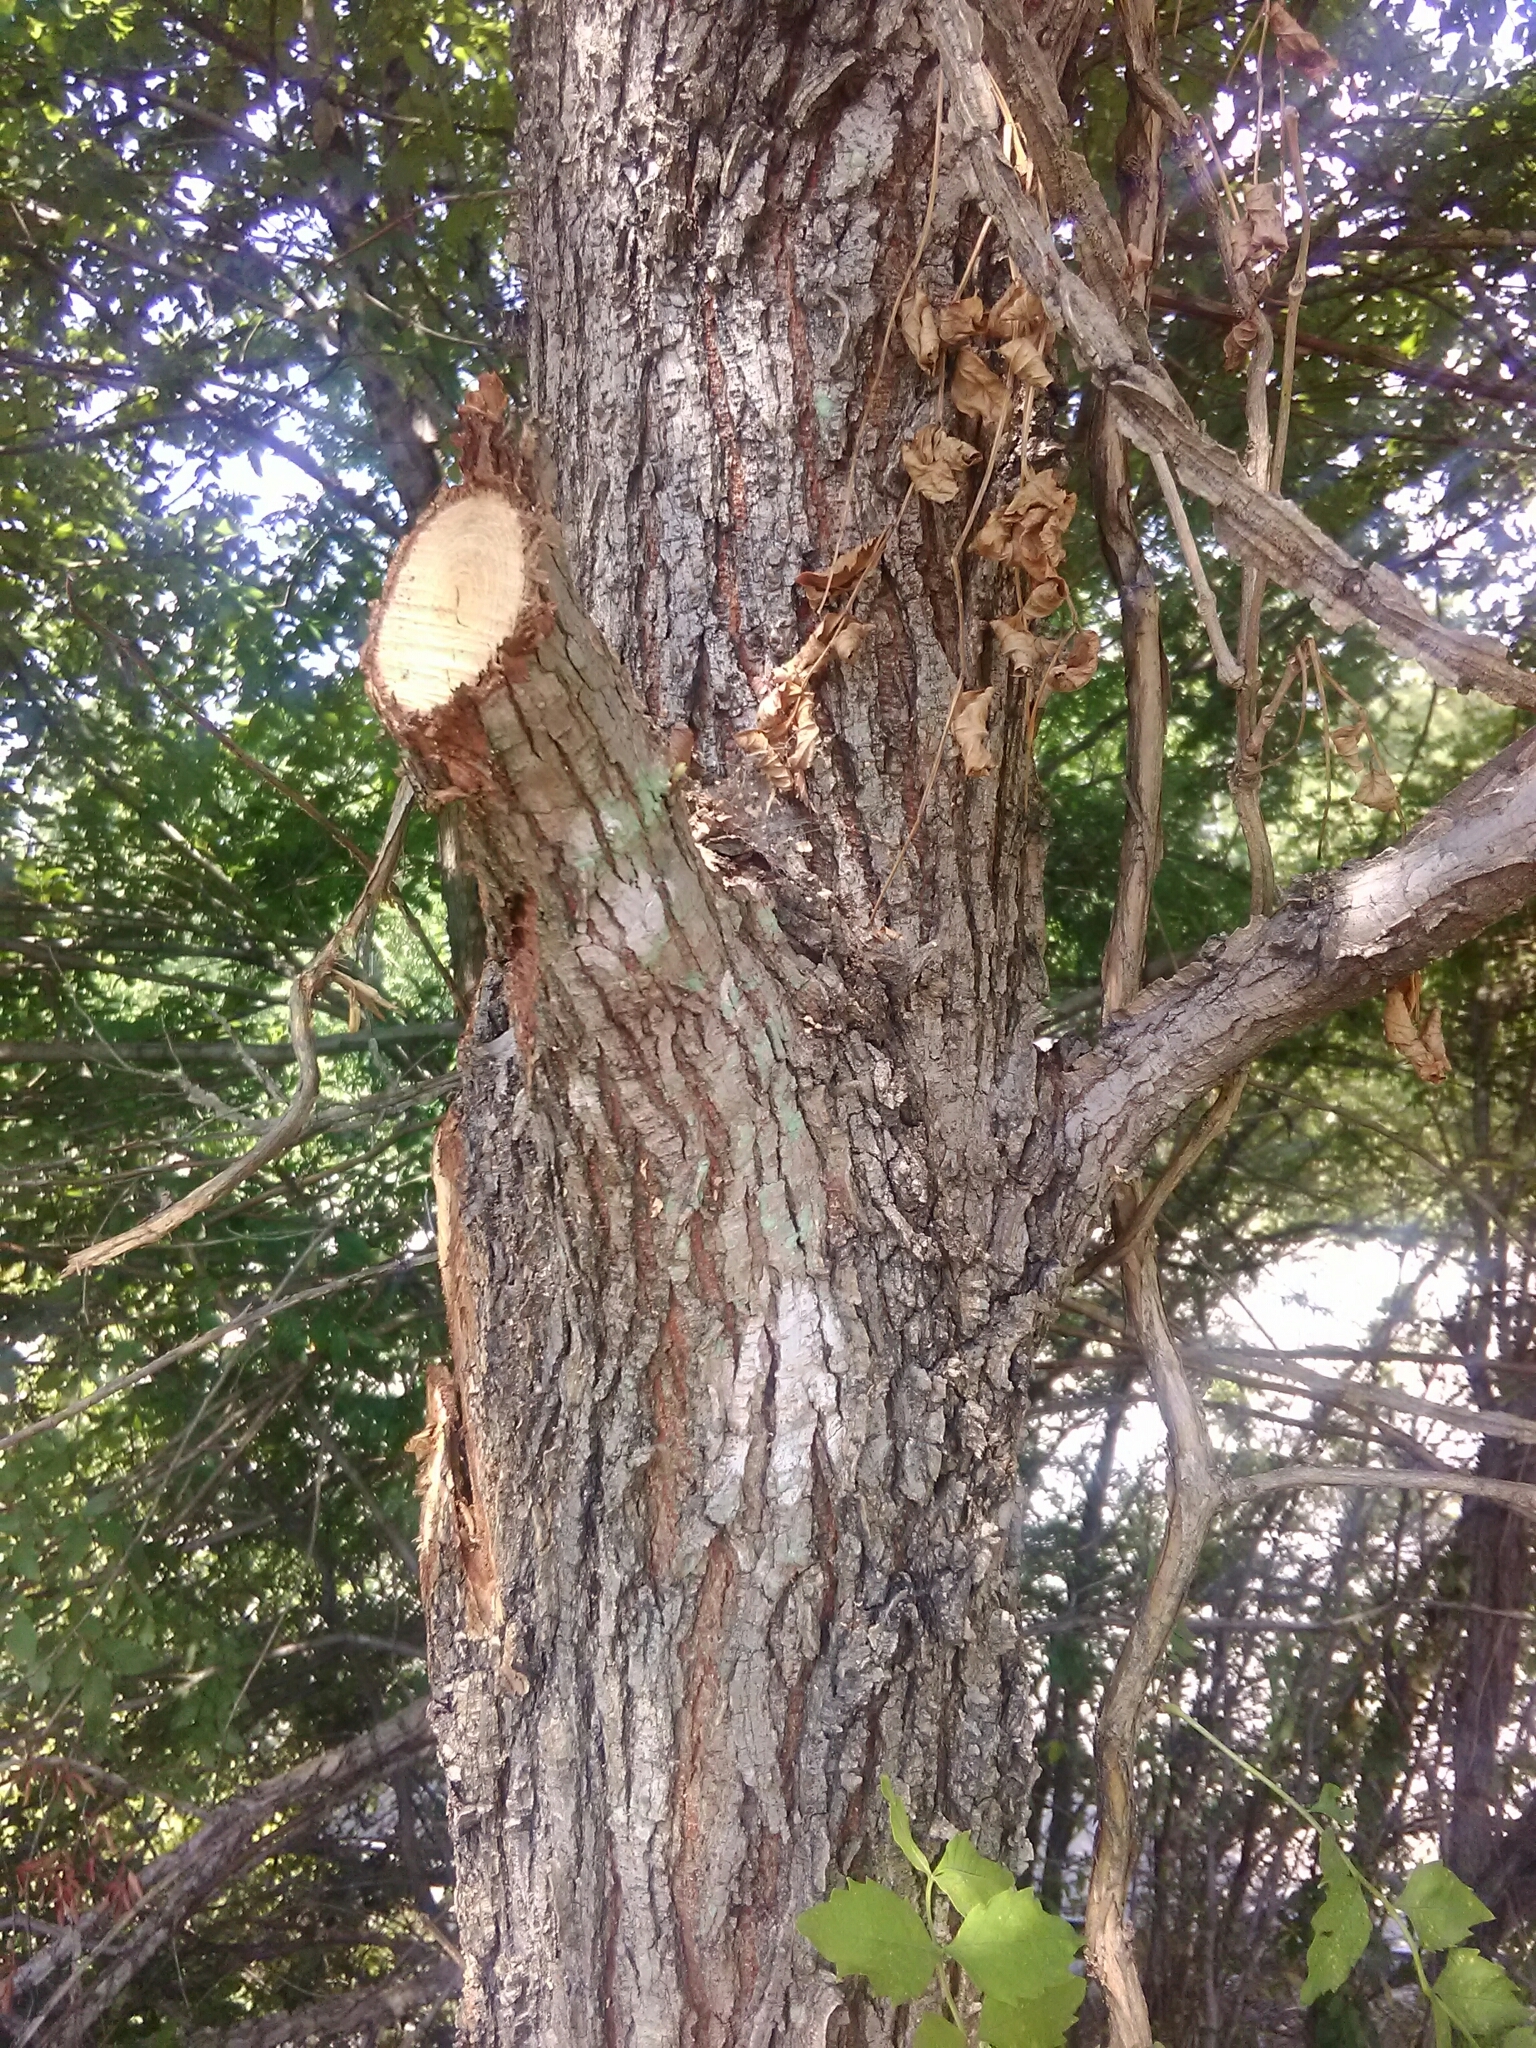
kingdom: Plantae
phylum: Tracheophyta
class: Magnoliopsida
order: Rosales
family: Ulmaceae
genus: Ulmus
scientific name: Ulmus alata
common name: Winged elm
